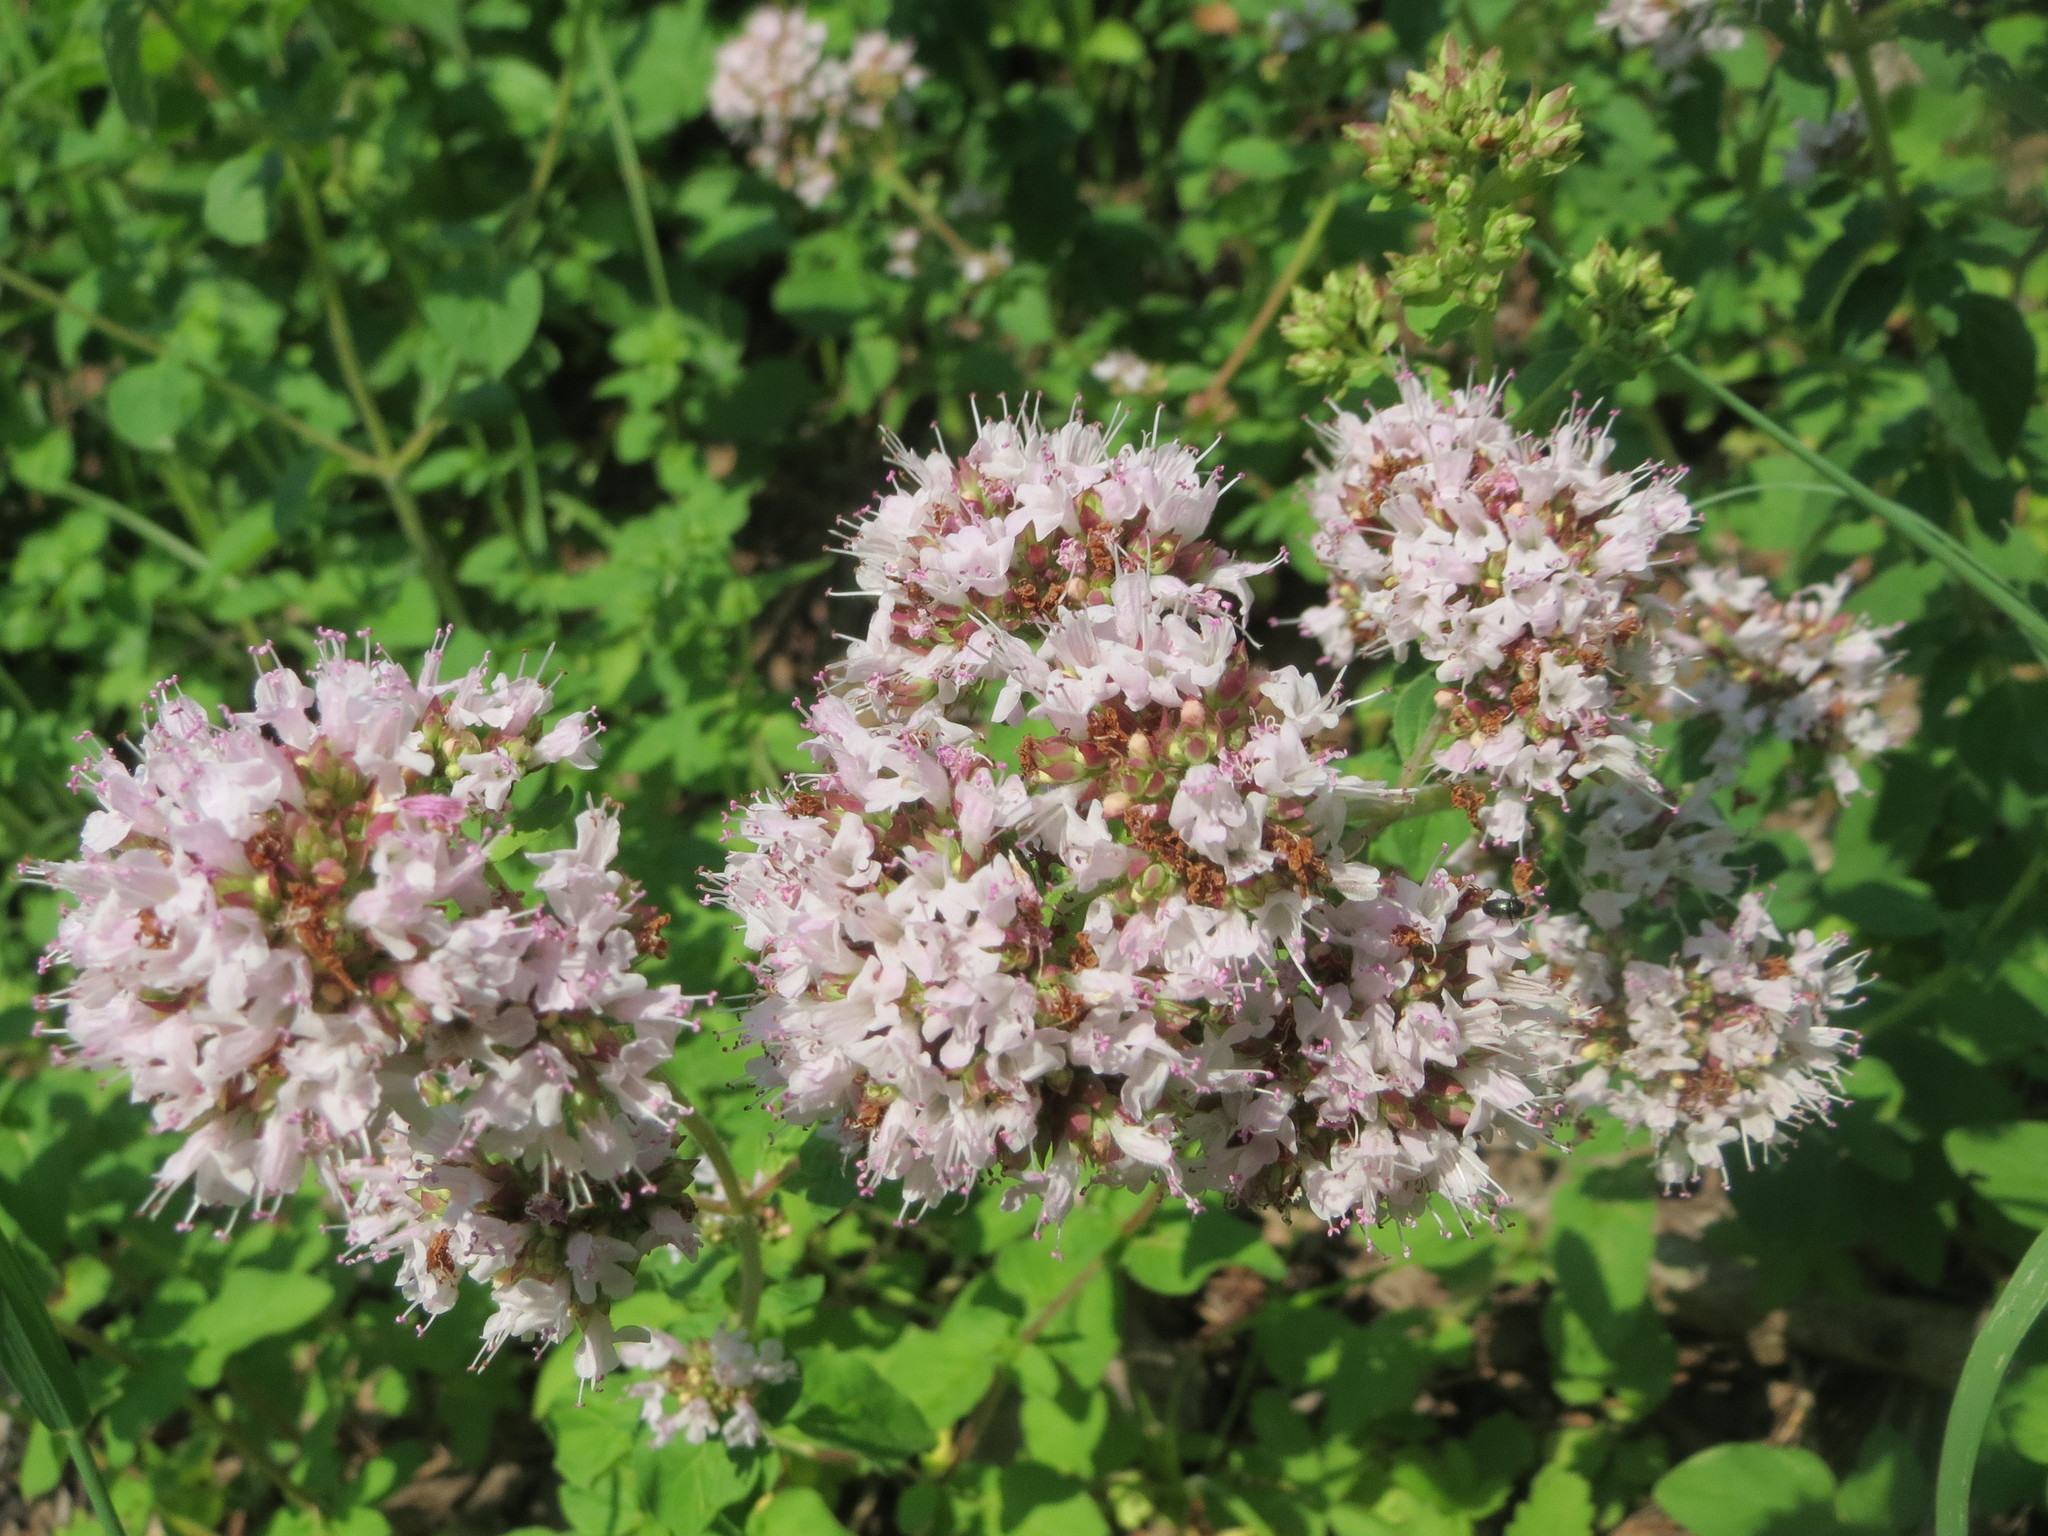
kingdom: Plantae
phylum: Tracheophyta
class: Magnoliopsida
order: Lamiales
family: Lamiaceae
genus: Origanum
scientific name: Origanum vulgare
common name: Wild marjoram
